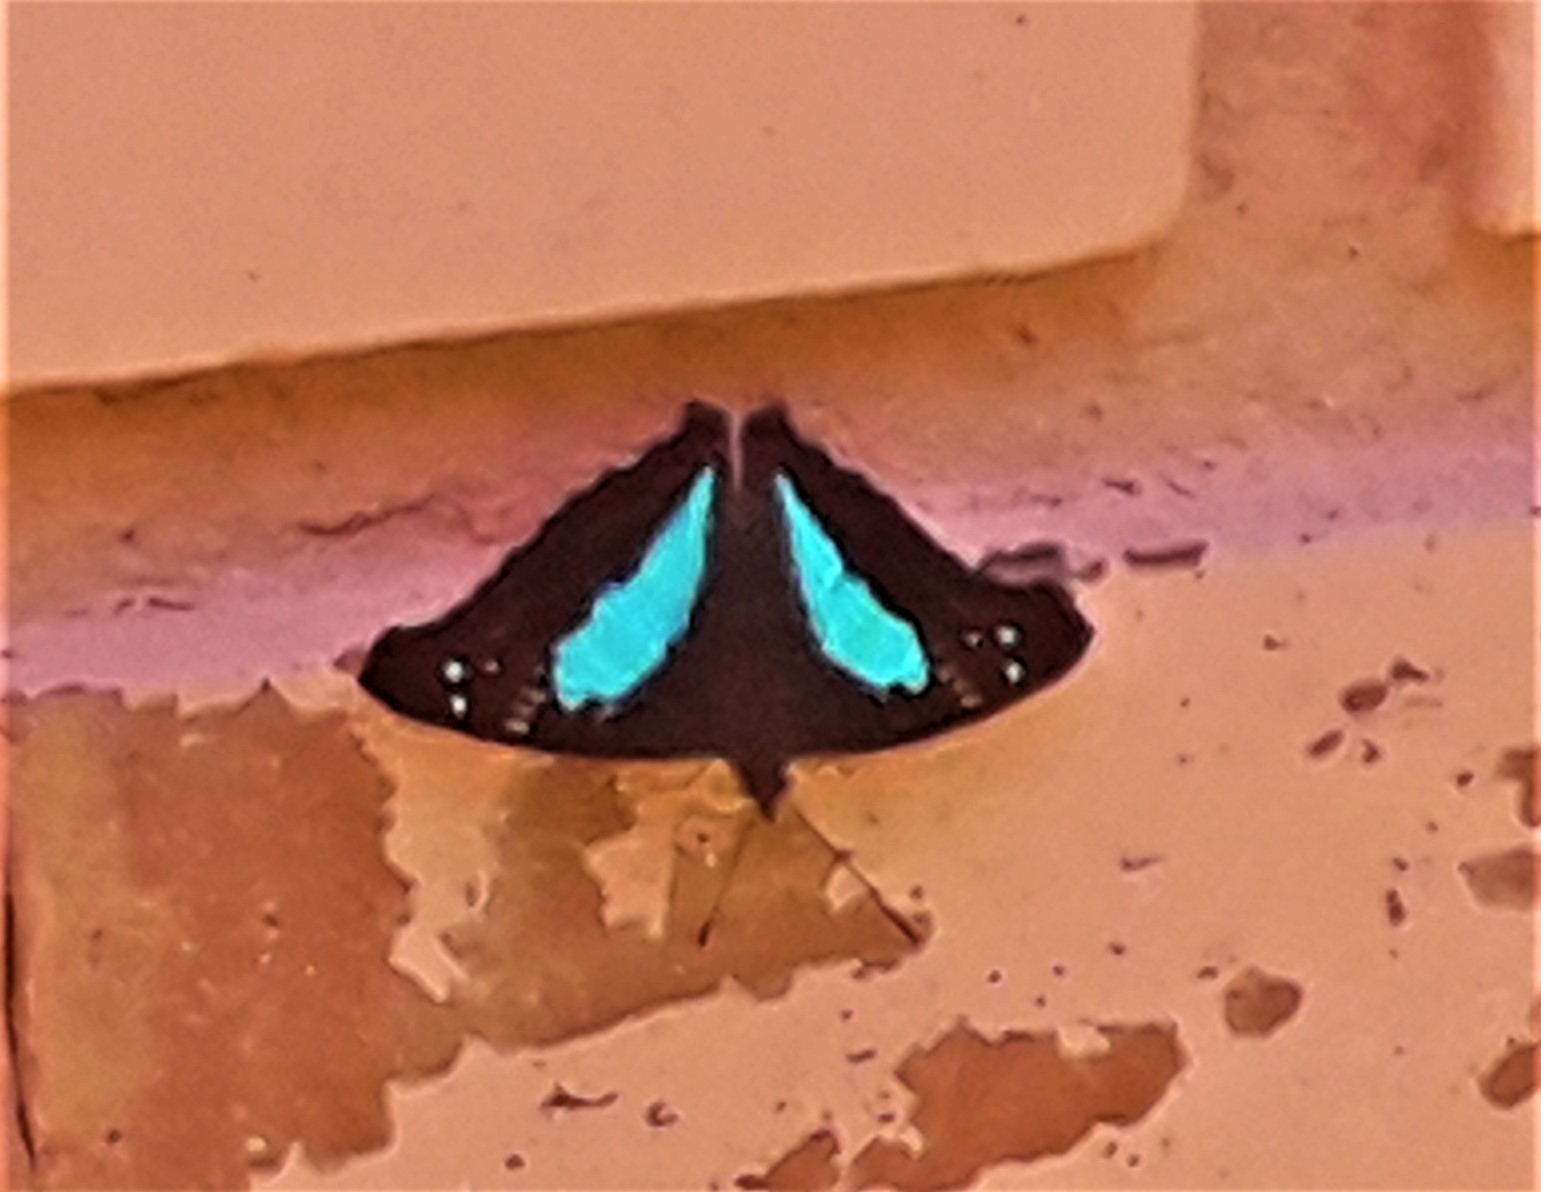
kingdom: Animalia
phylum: Arthropoda
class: Insecta
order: Lepidoptera
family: Nymphalidae
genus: Doxocopa
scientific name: Doxocopa laurentia
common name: Turquoise emperor
